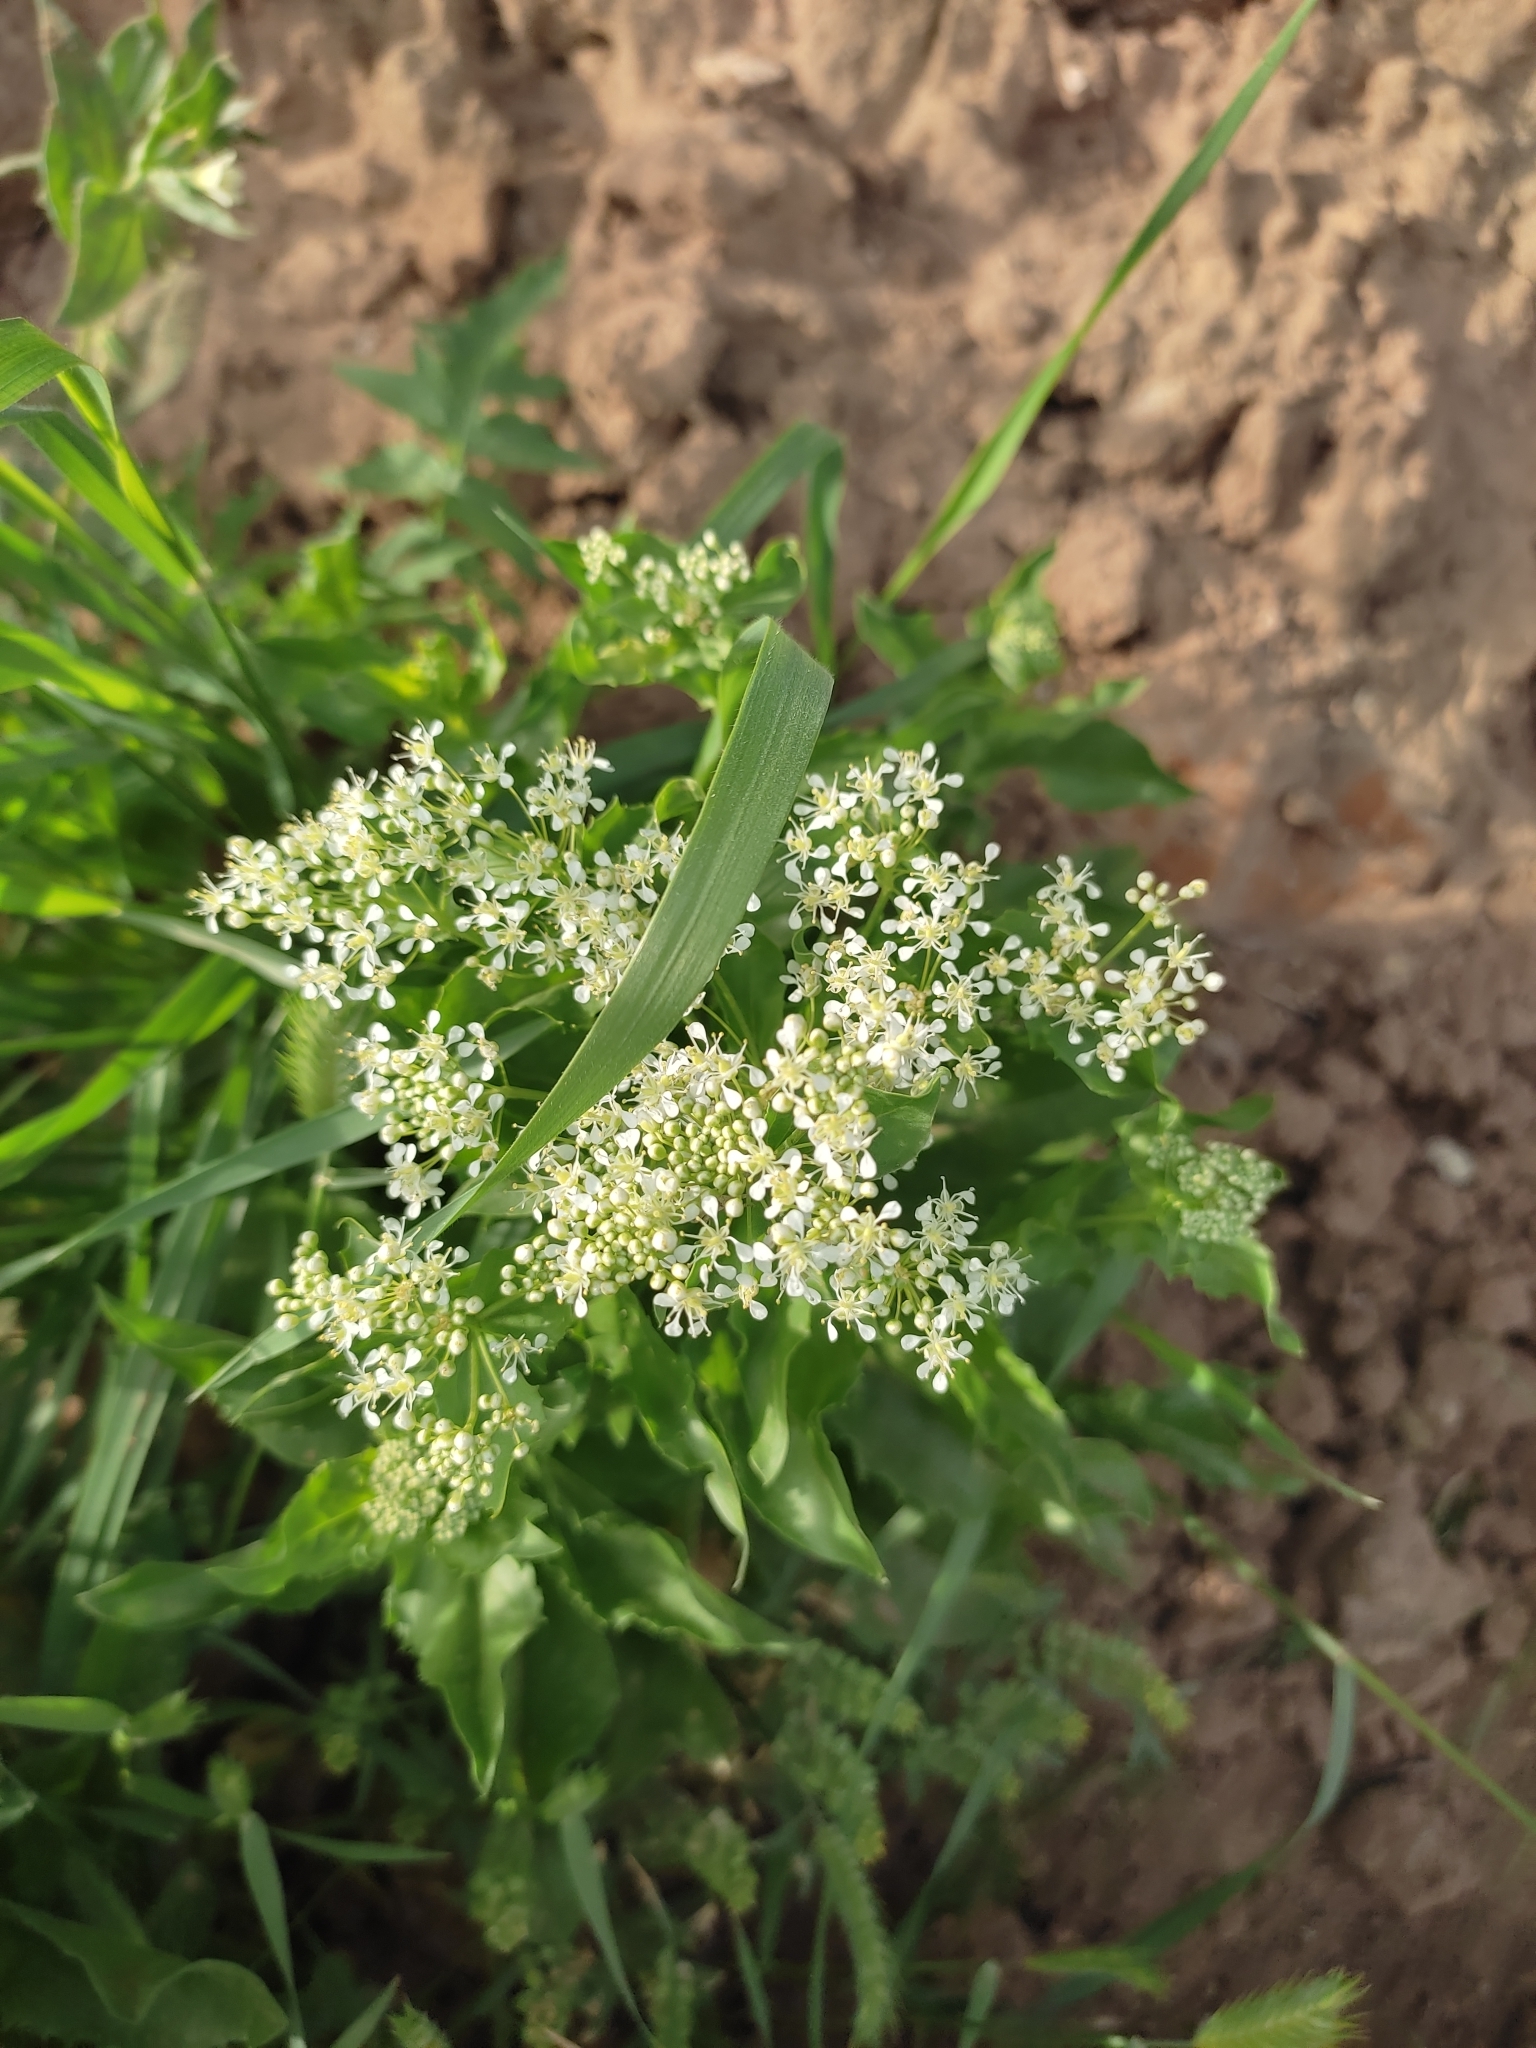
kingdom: Plantae
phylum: Tracheophyta
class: Magnoliopsida
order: Brassicales
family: Brassicaceae
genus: Lepidium
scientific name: Lepidium draba
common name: Hoary cress
